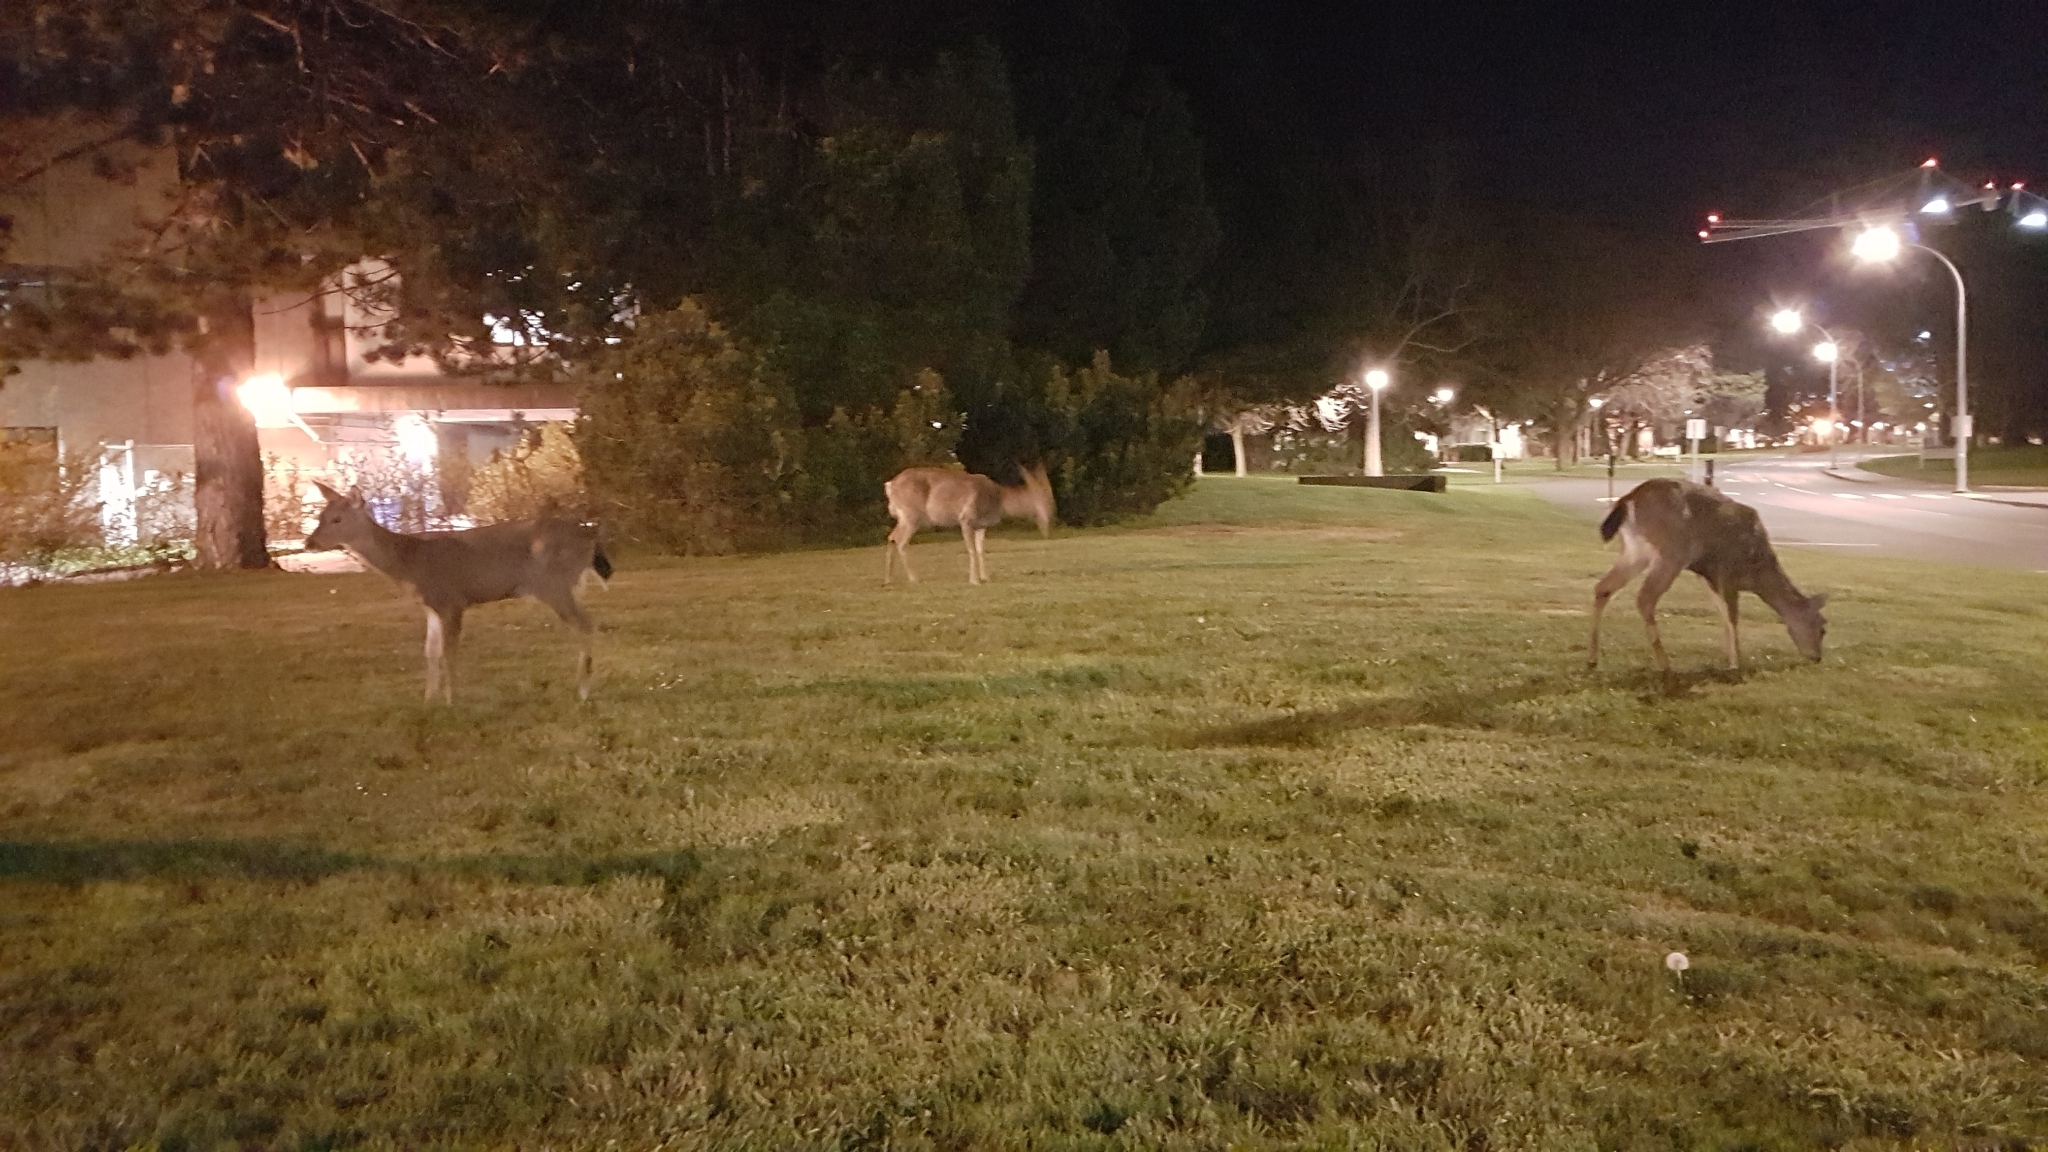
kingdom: Animalia
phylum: Chordata
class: Mammalia
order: Artiodactyla
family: Cervidae
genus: Odocoileus
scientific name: Odocoileus hemionus
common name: Mule deer
